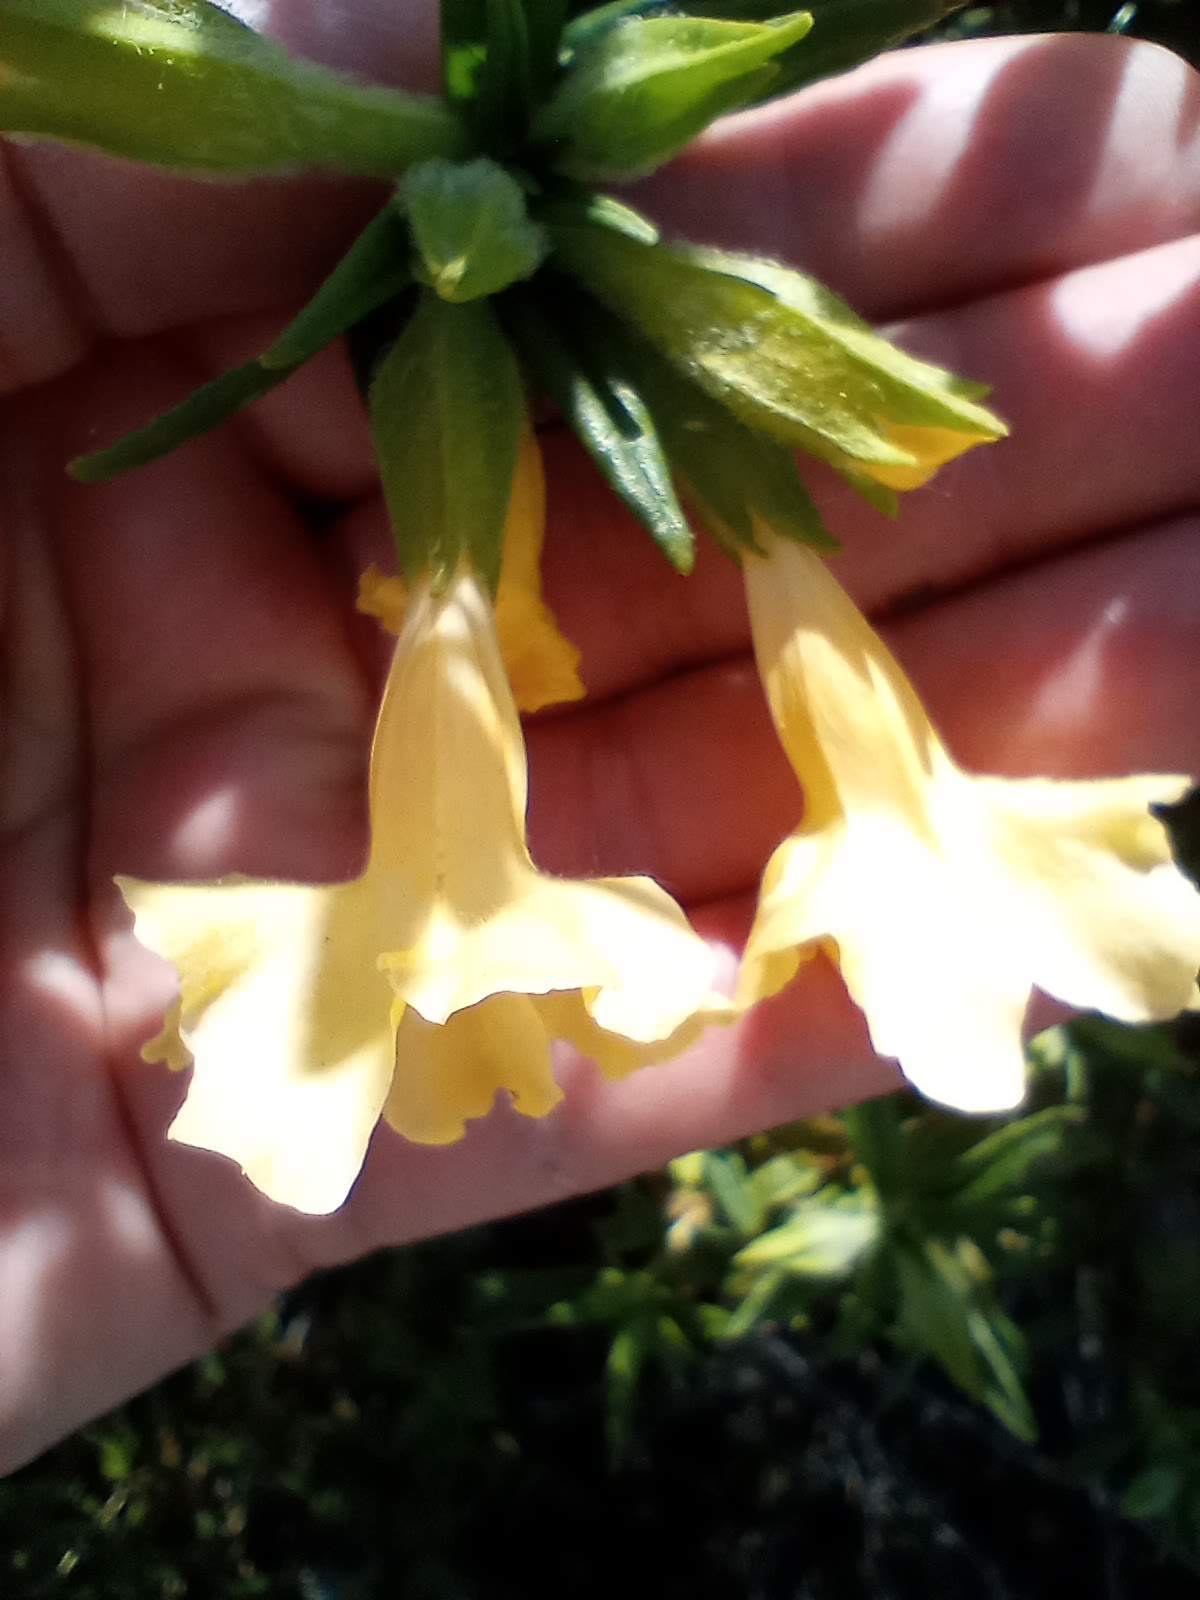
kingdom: Plantae
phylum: Tracheophyta
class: Magnoliopsida
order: Lamiales
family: Phrymaceae
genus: Diplacus
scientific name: Diplacus longiflorus
